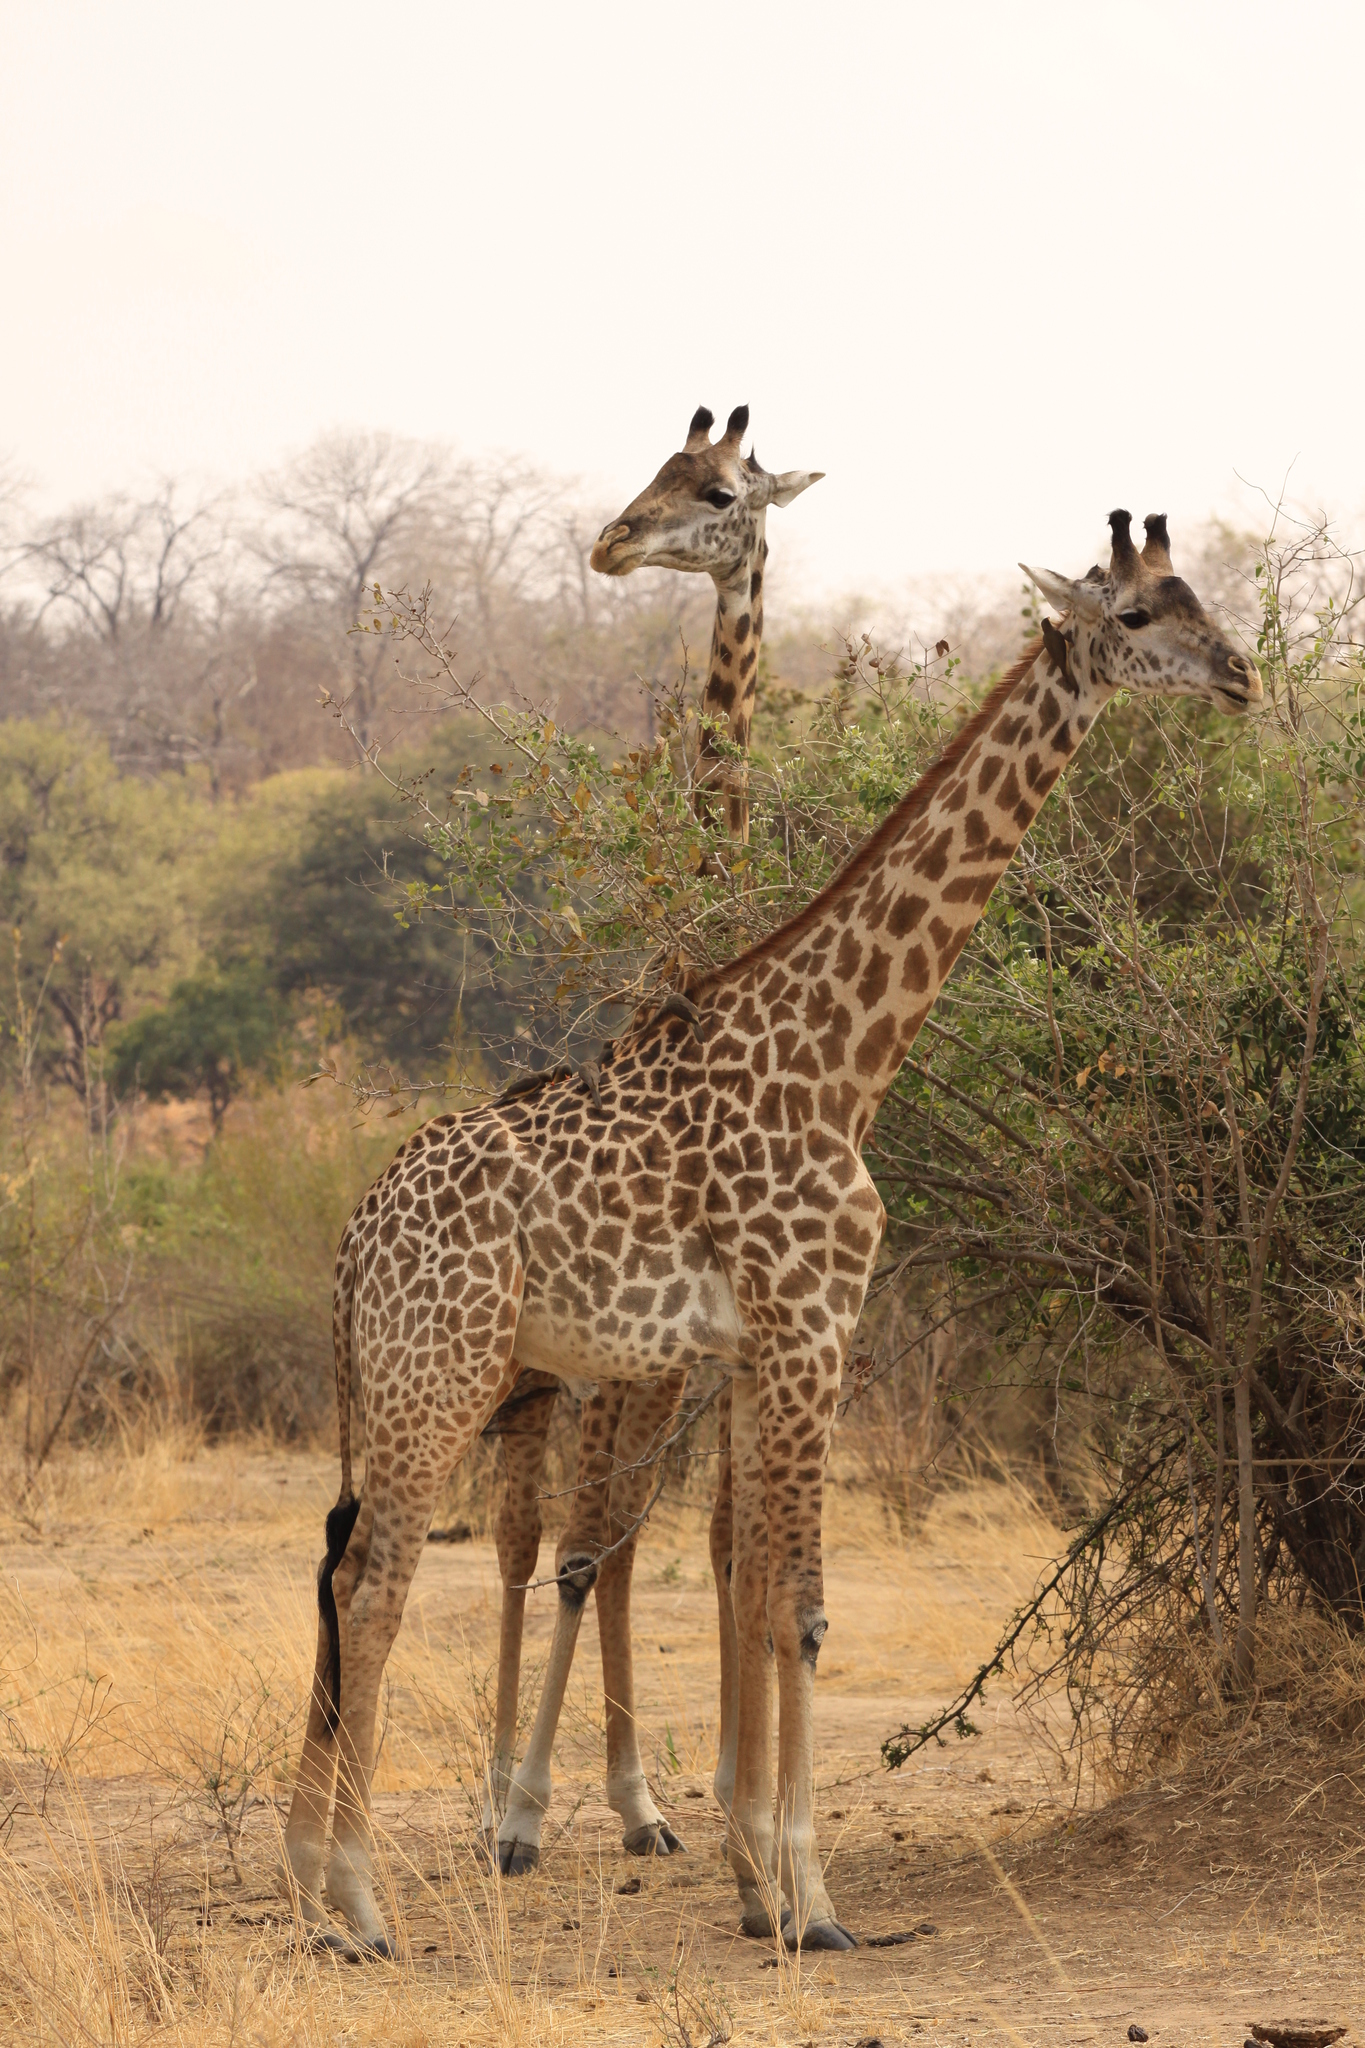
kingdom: Animalia
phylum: Chordata
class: Mammalia
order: Artiodactyla
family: Giraffidae
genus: Giraffa
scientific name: Giraffa tippelskirchi
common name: Masai giraffe
